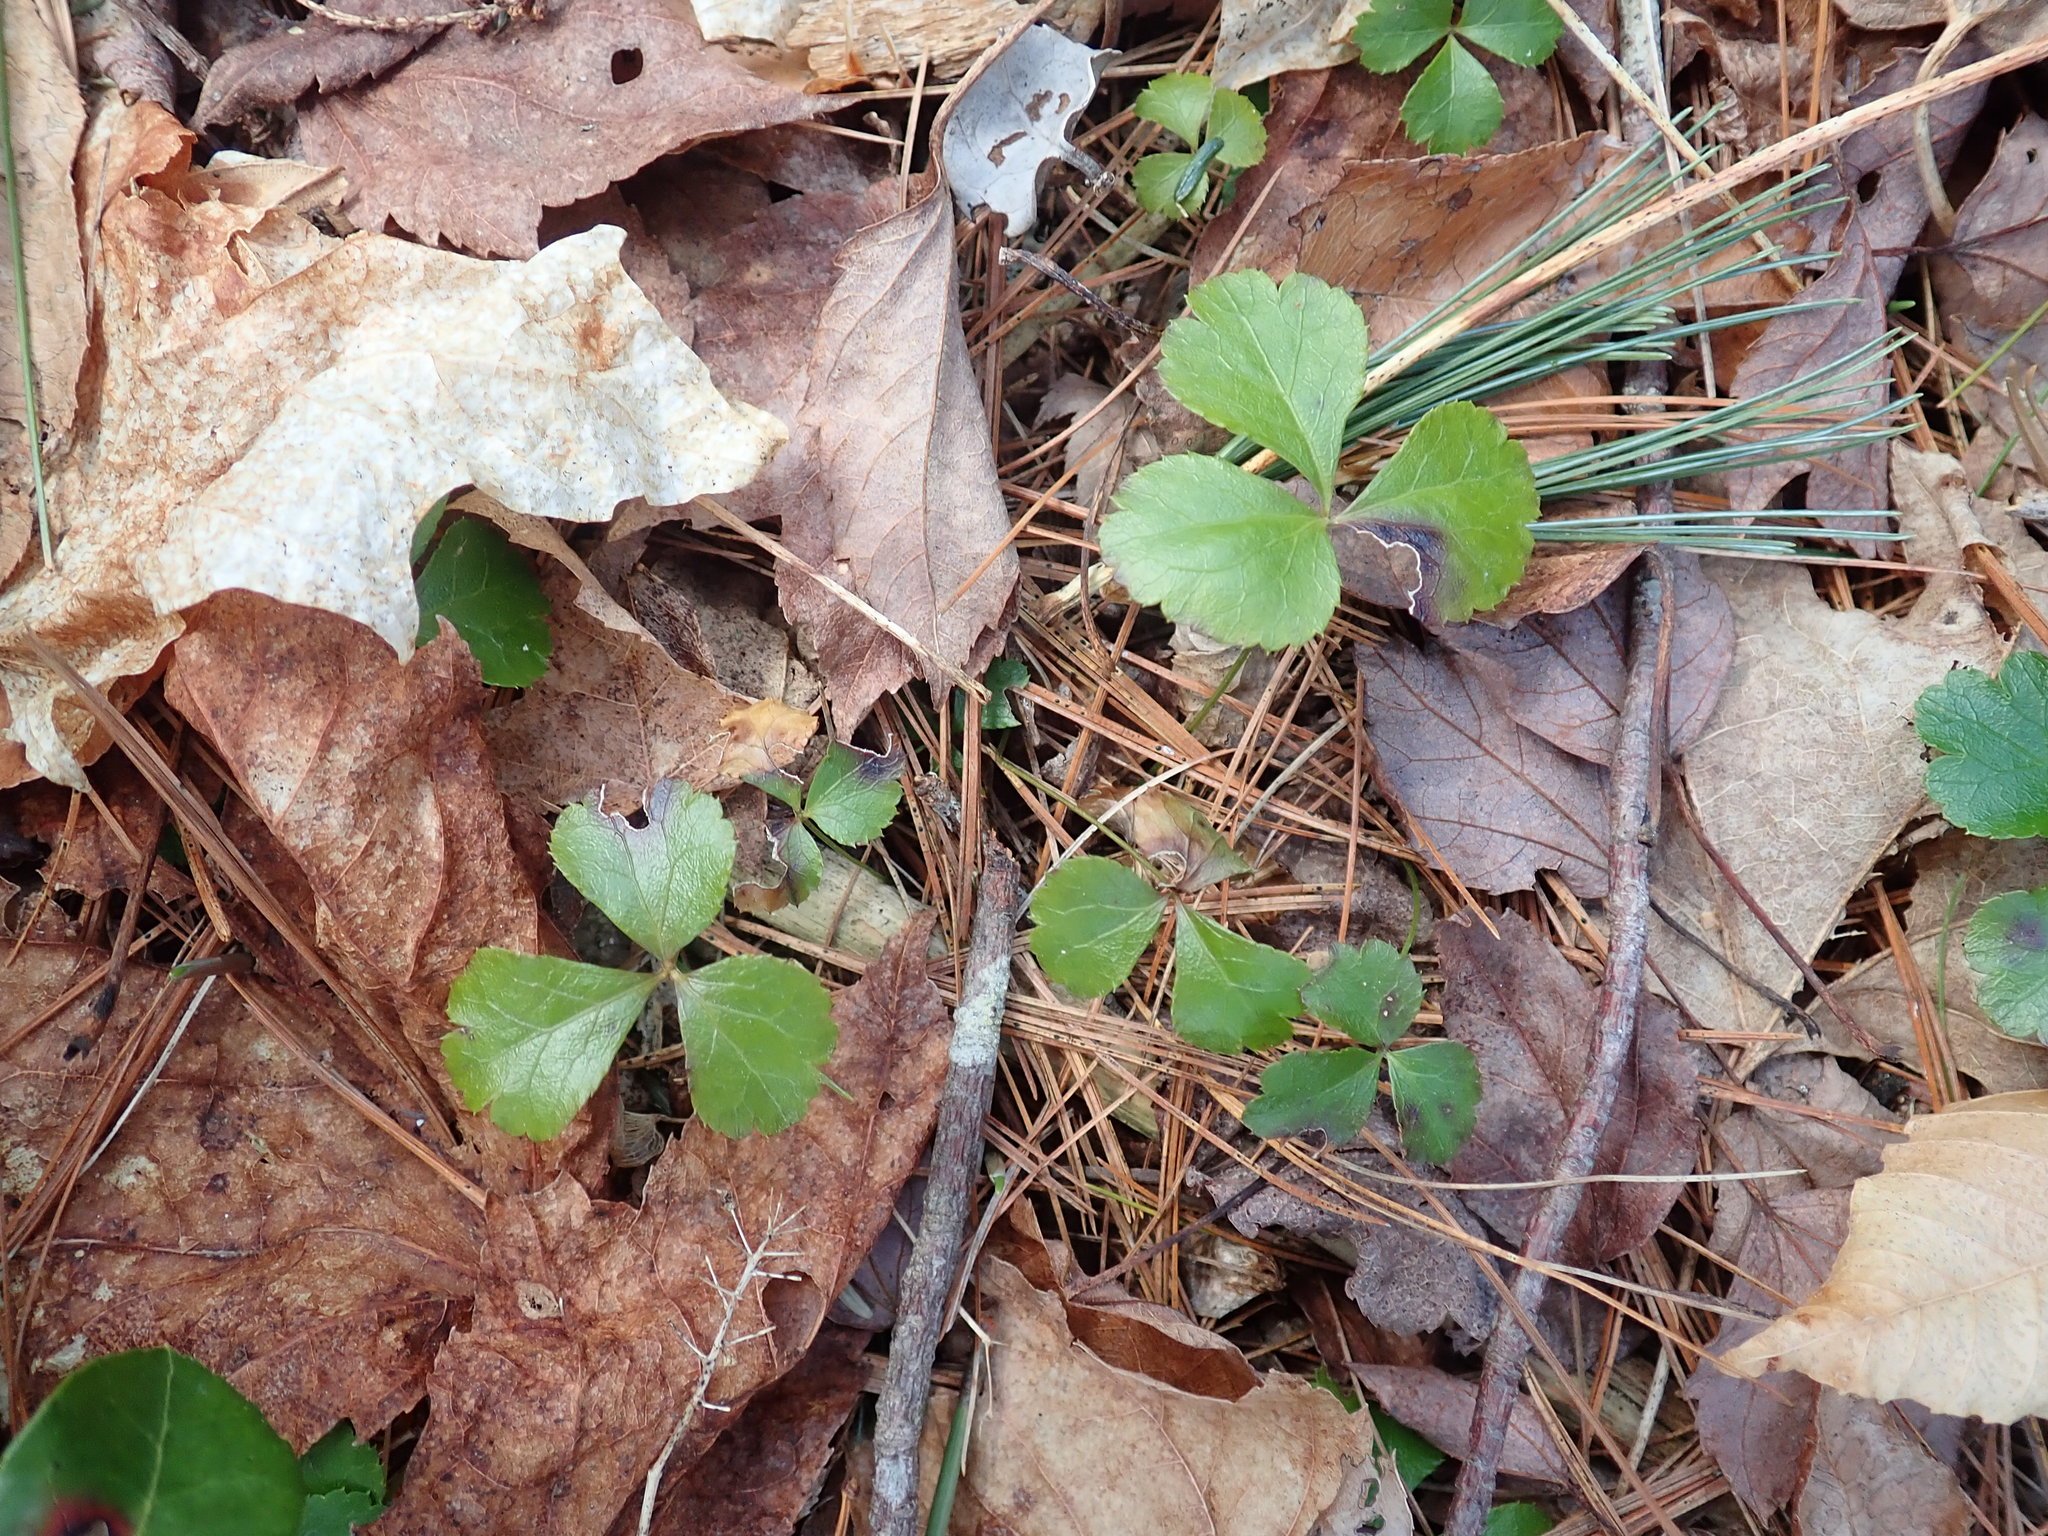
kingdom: Plantae
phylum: Tracheophyta
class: Magnoliopsida
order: Ranunculales
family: Ranunculaceae
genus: Coptis
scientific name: Coptis trifolia
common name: Canker-root
